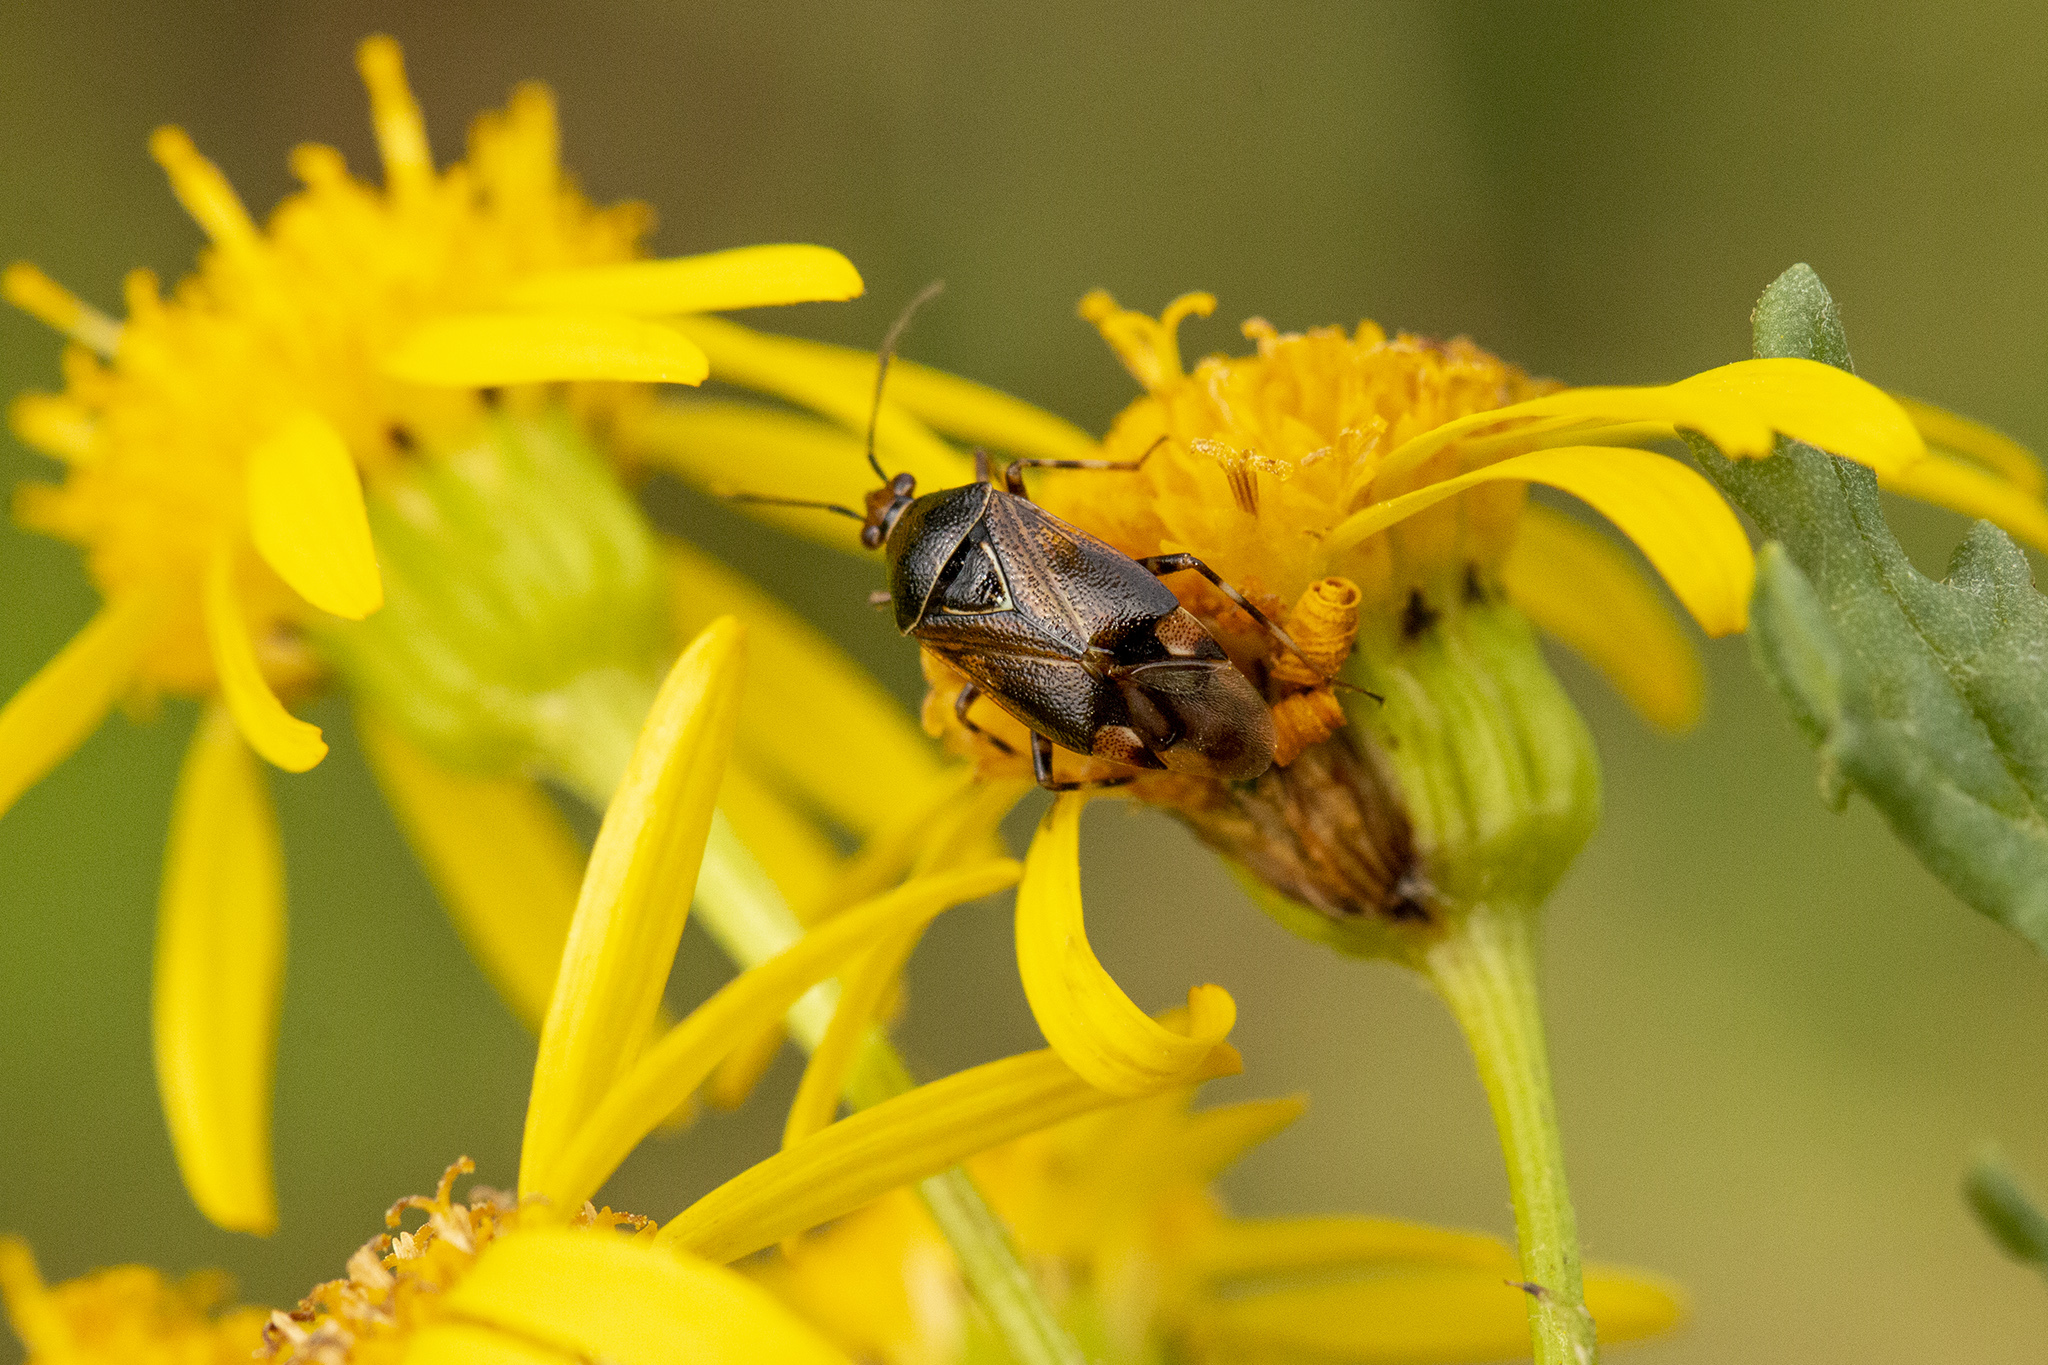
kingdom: Animalia
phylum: Arthropoda
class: Insecta
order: Hemiptera
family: Miridae
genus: Deraeocoris
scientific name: Deraeocoris flavilinea
